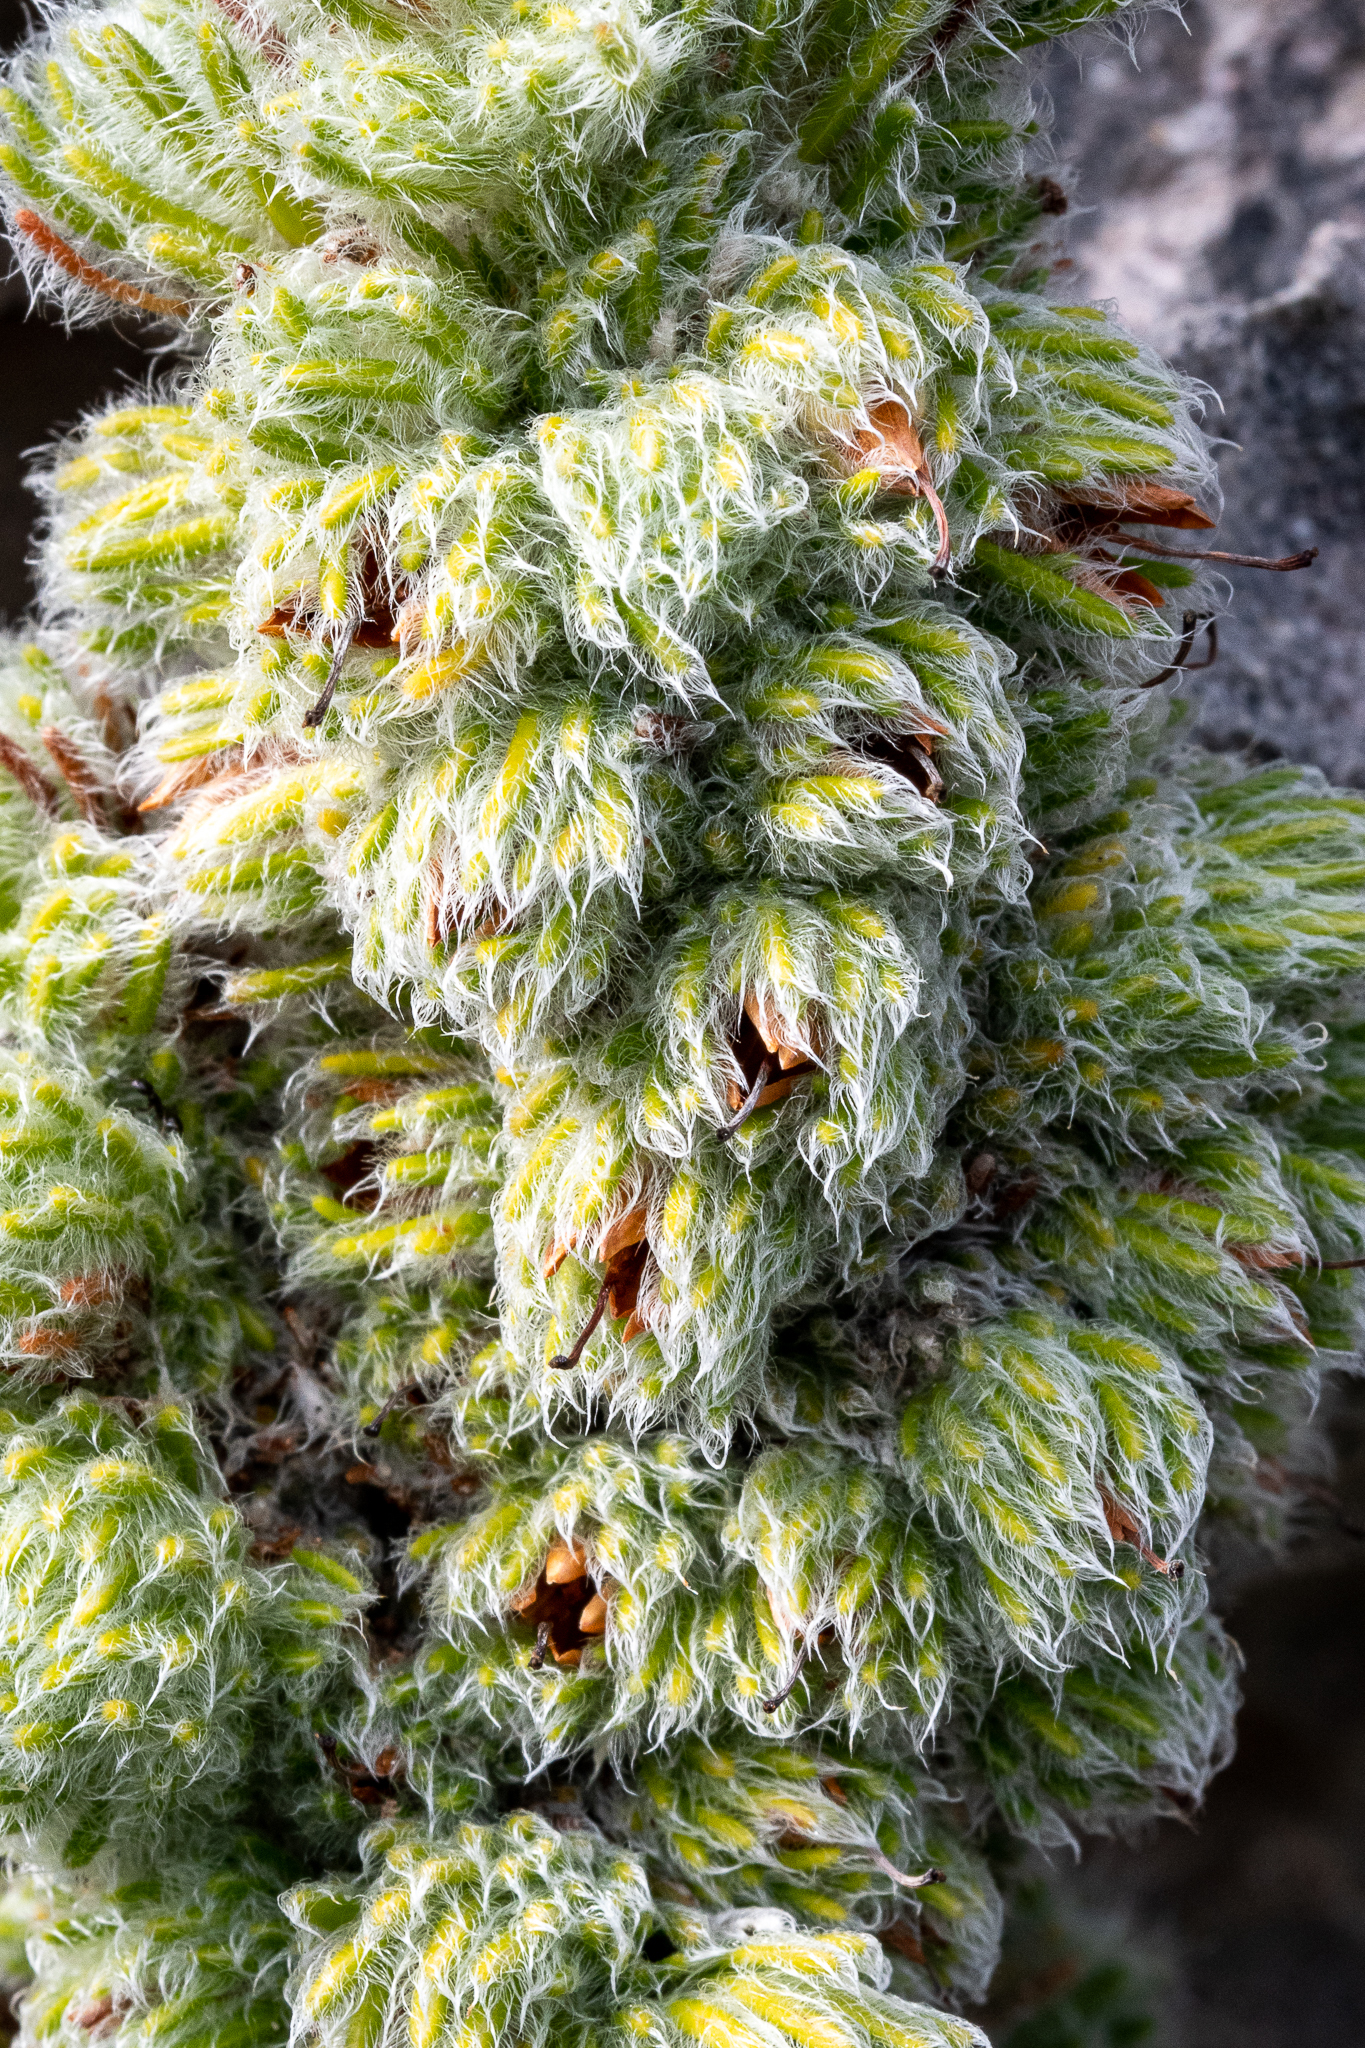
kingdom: Plantae
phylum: Tracheophyta
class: Magnoliopsida
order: Ericales
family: Ericaceae
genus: Erica
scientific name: Erica occulta
